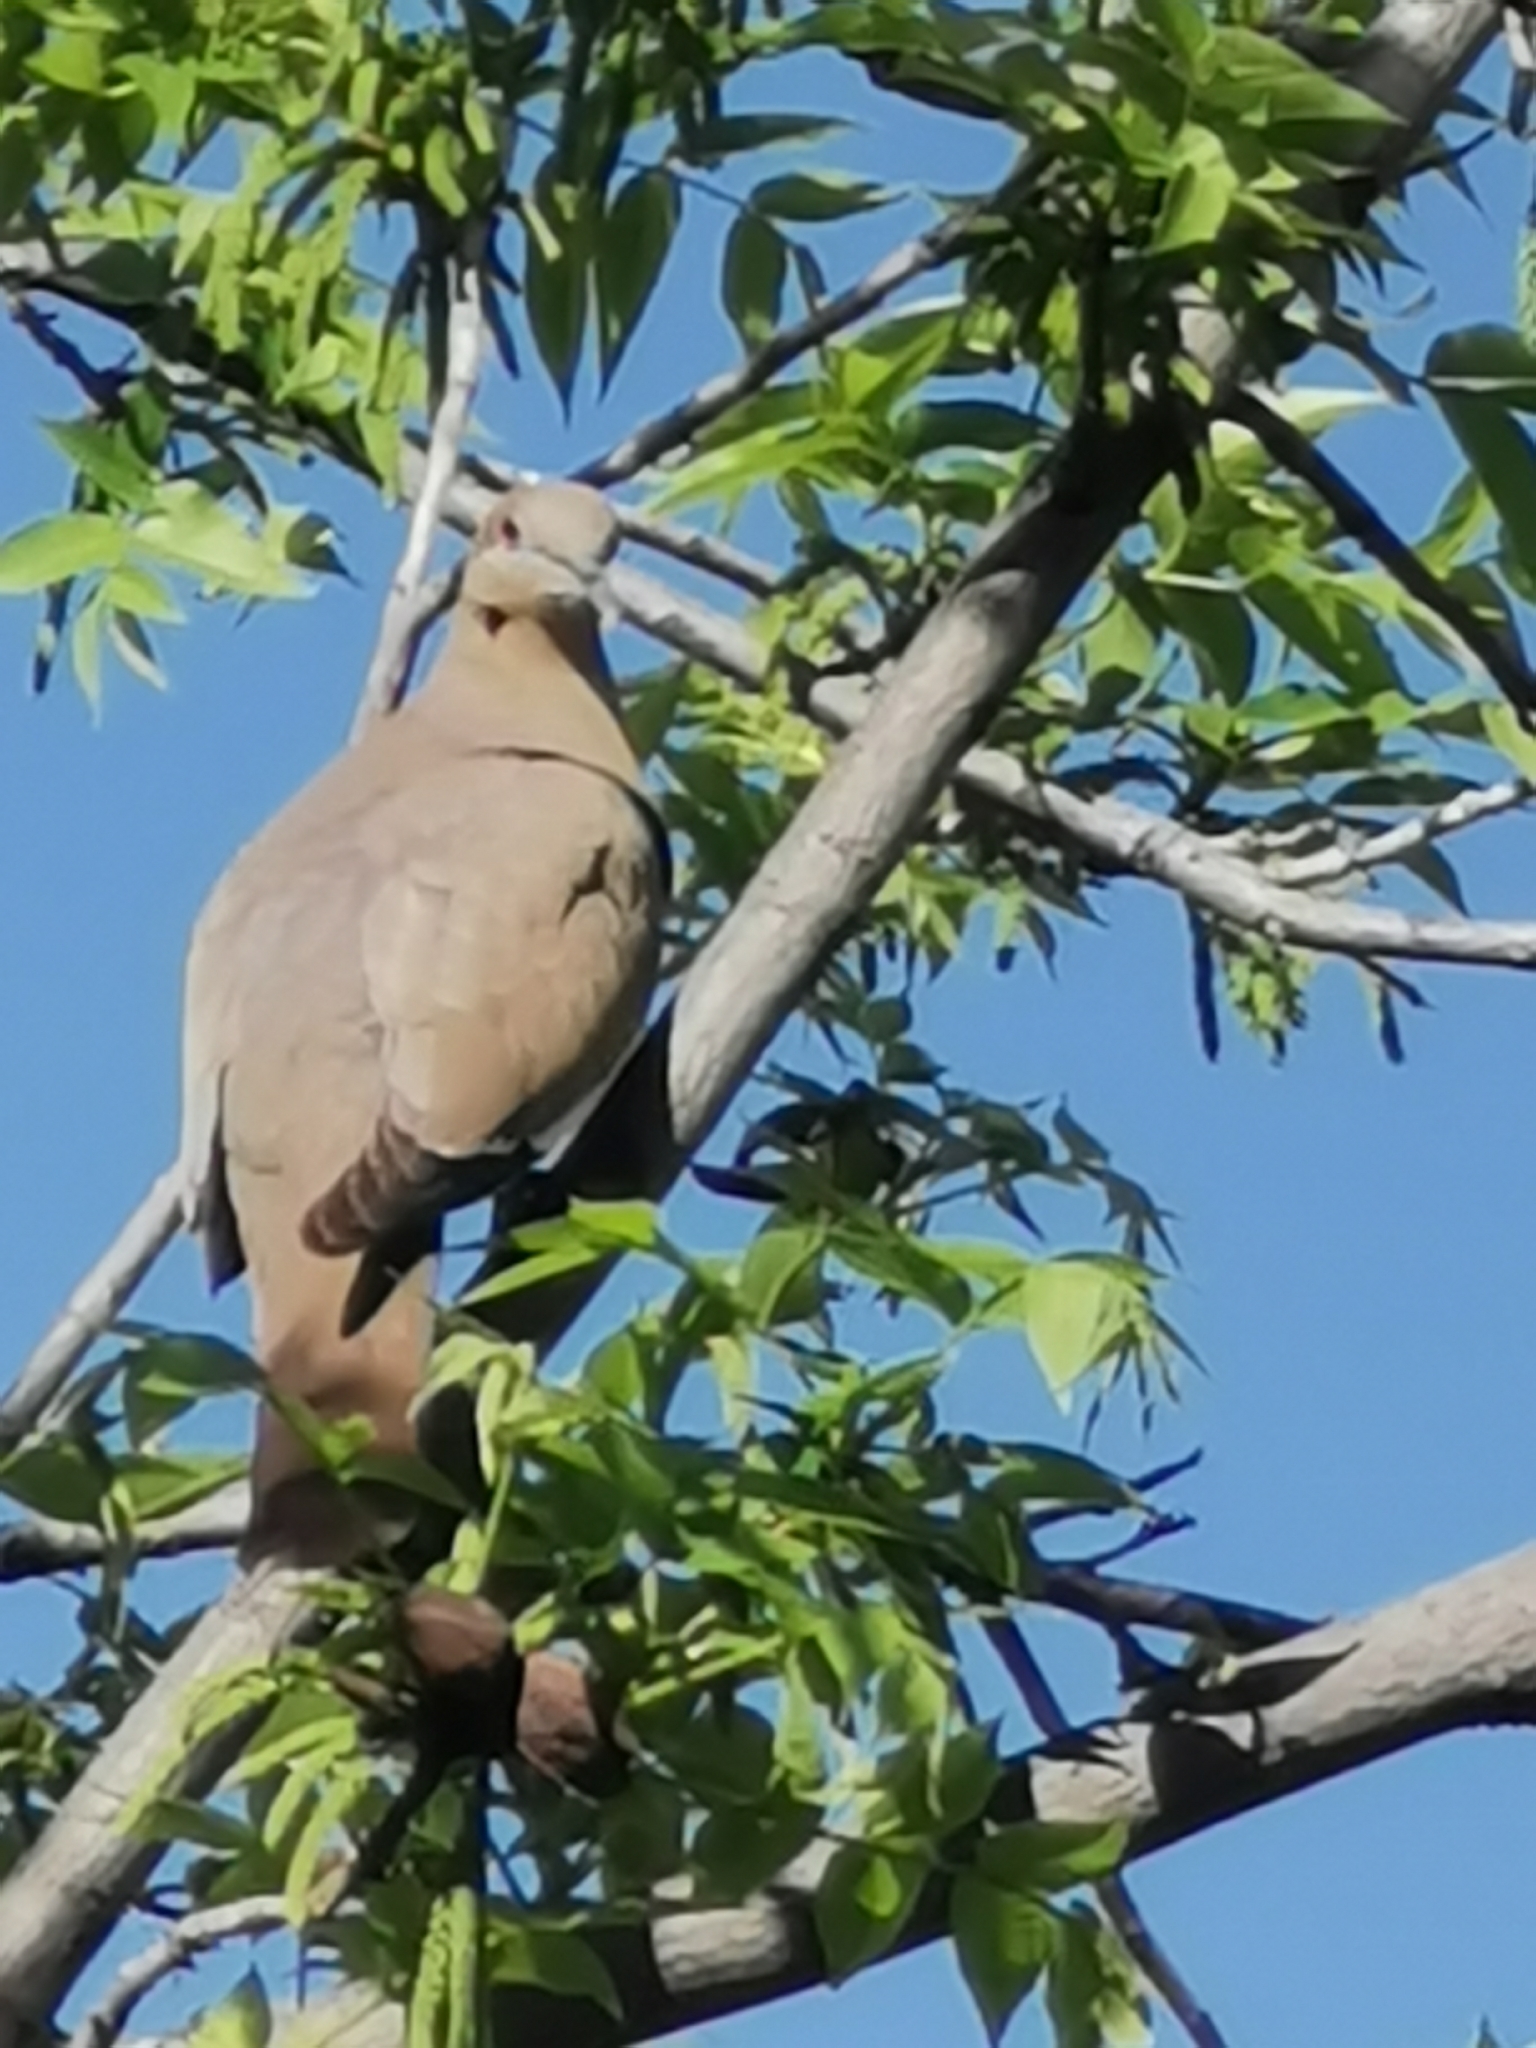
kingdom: Animalia
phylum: Chordata
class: Aves
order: Columbiformes
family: Columbidae
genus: Zenaida
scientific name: Zenaida asiatica
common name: White-winged dove
